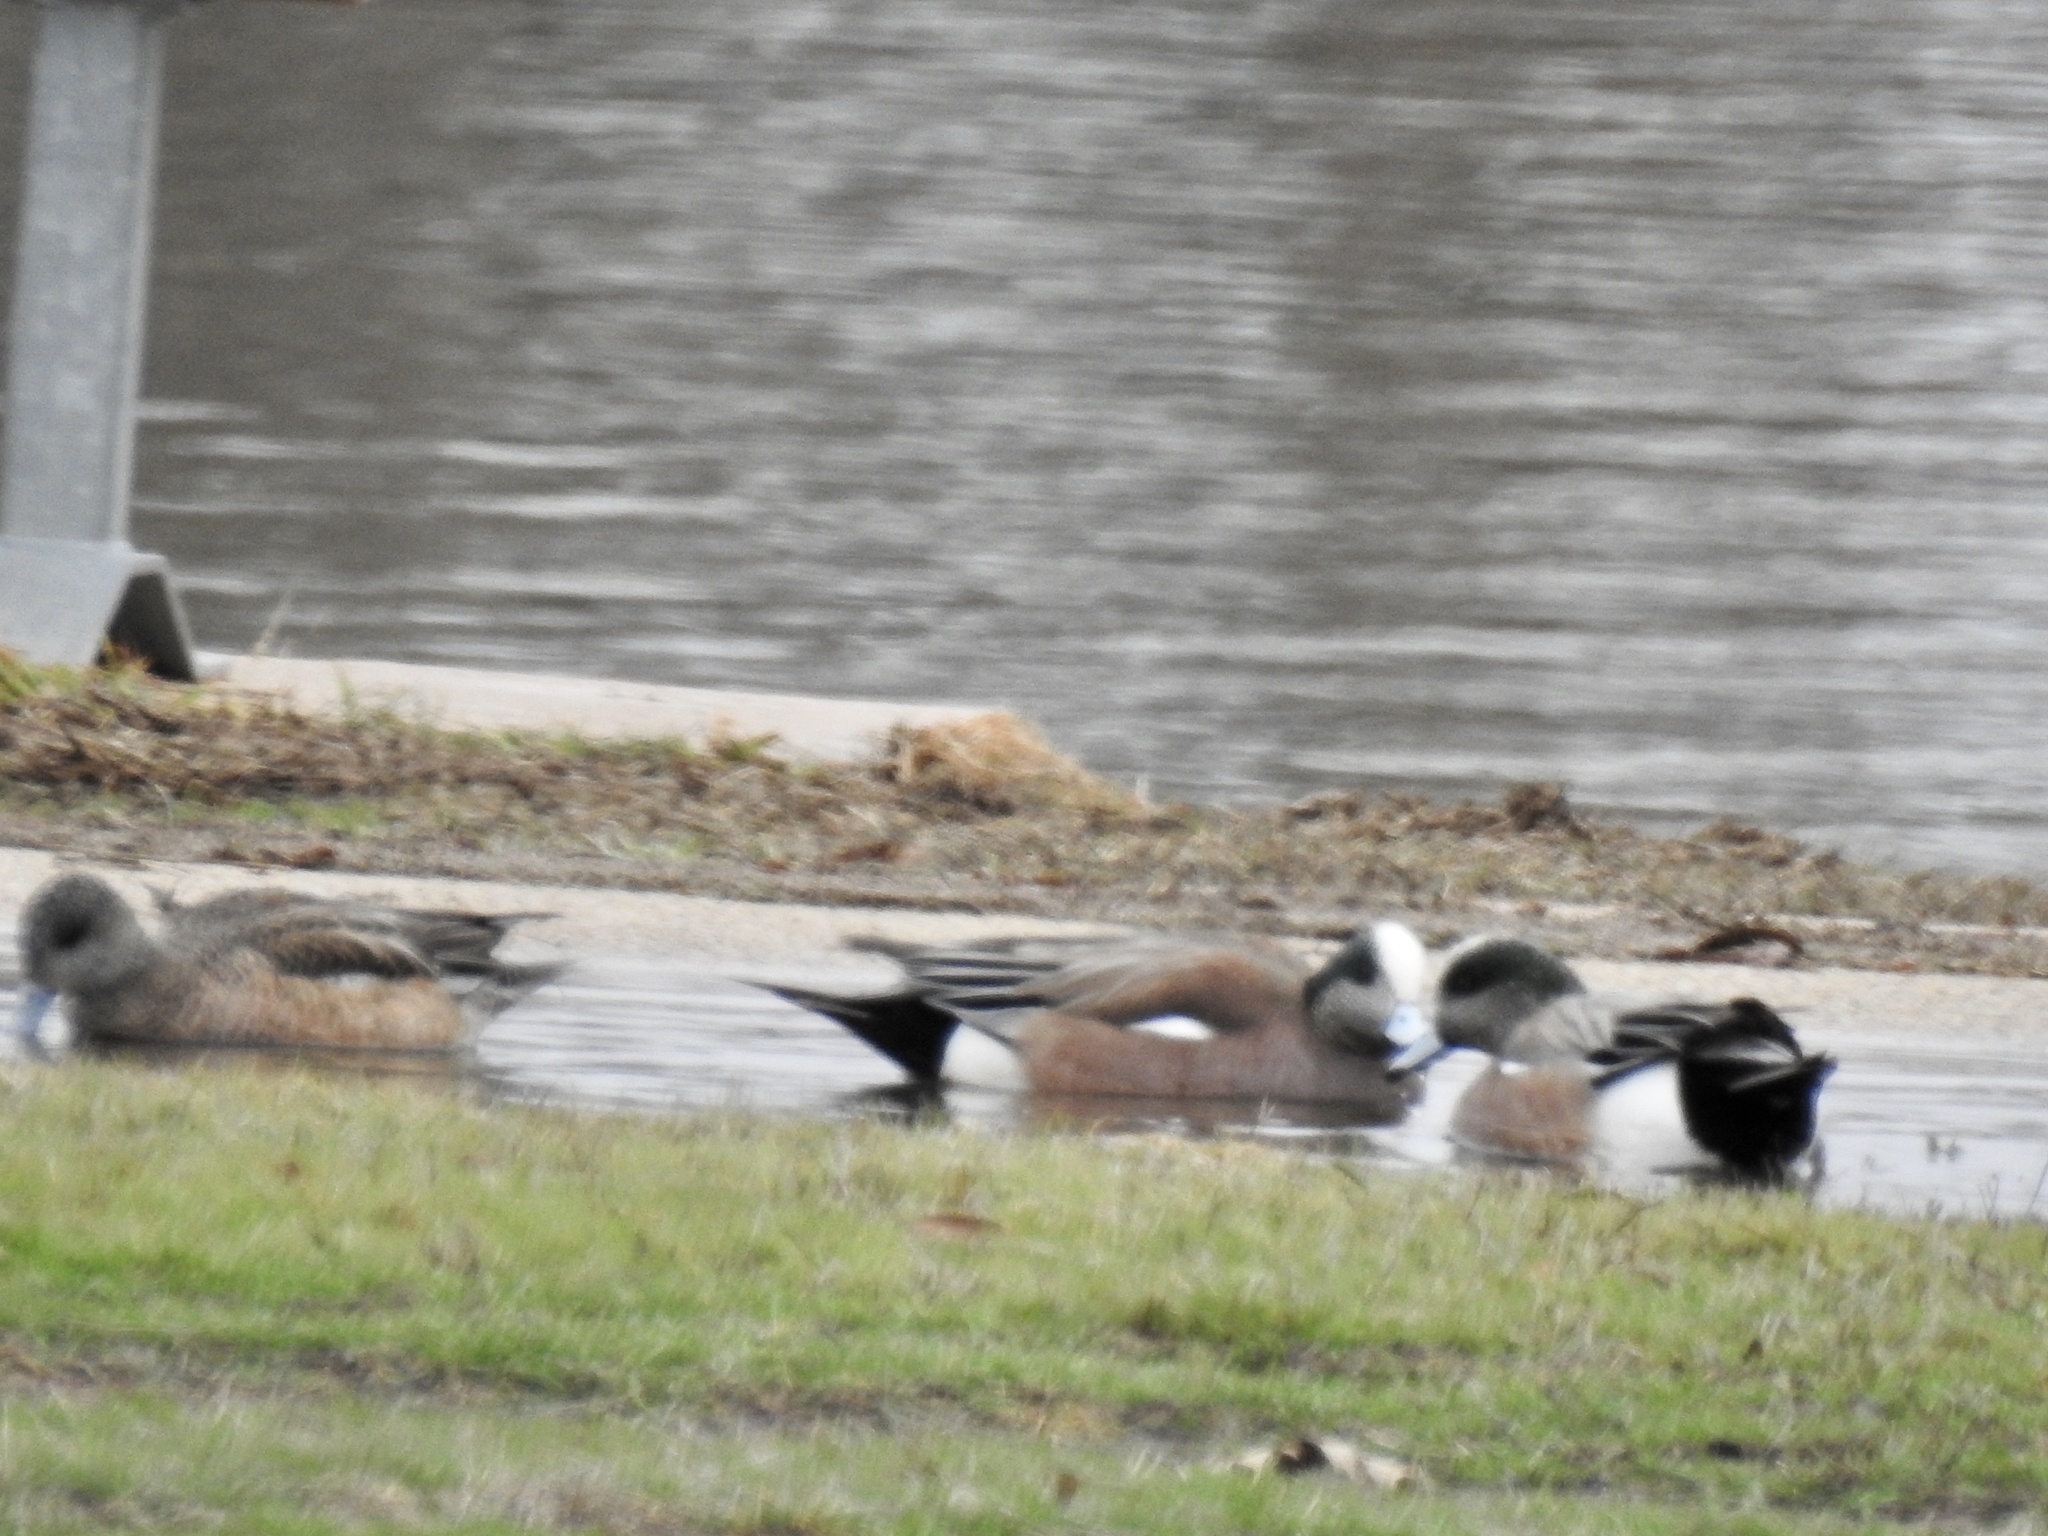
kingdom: Animalia
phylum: Chordata
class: Aves
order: Anseriformes
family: Anatidae
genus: Mareca
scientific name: Mareca americana
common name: American wigeon
